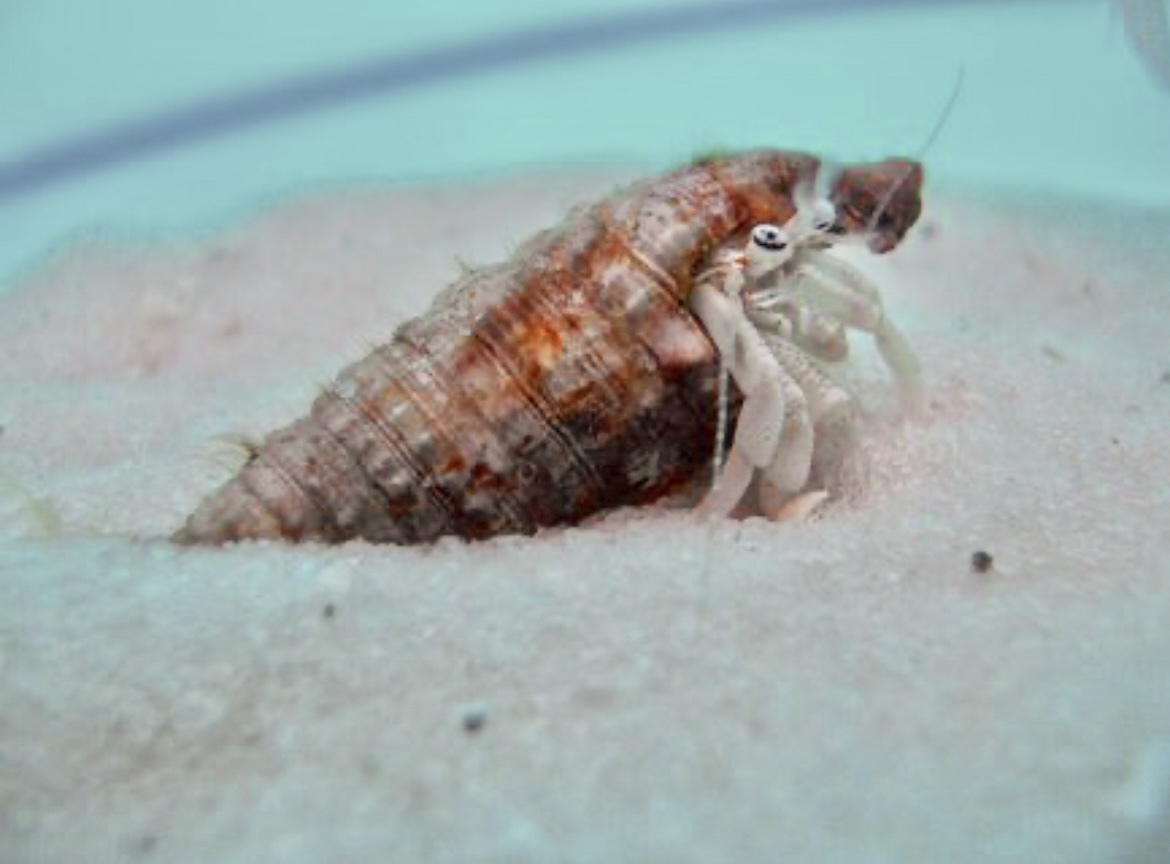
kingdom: Animalia
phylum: Mollusca
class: Gastropoda
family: Cerithiidae
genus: Cerithium
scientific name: Cerithium atratum
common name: Dark cerith
